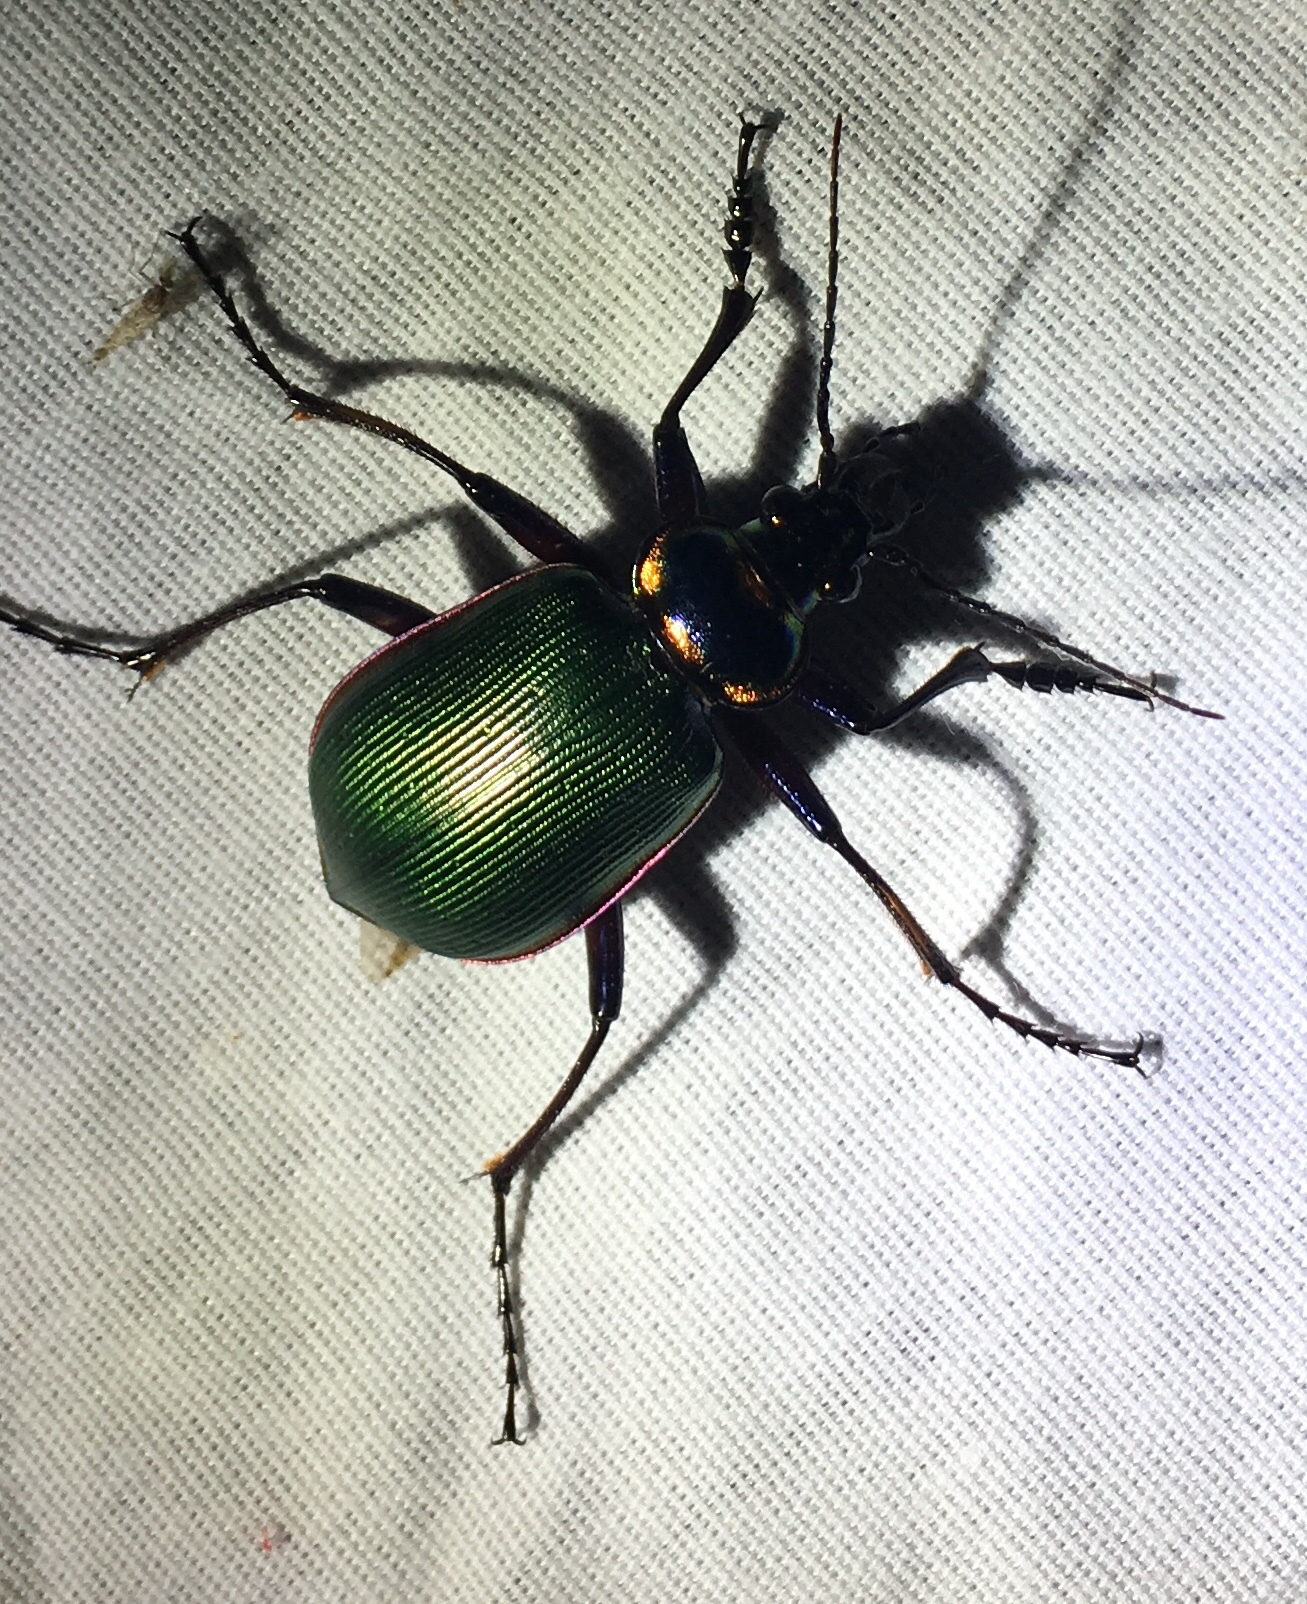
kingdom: Animalia
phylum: Arthropoda
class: Insecta
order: Coleoptera
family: Carabidae
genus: Calosoma
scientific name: Calosoma scrutator
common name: Fiery searcher beetle
